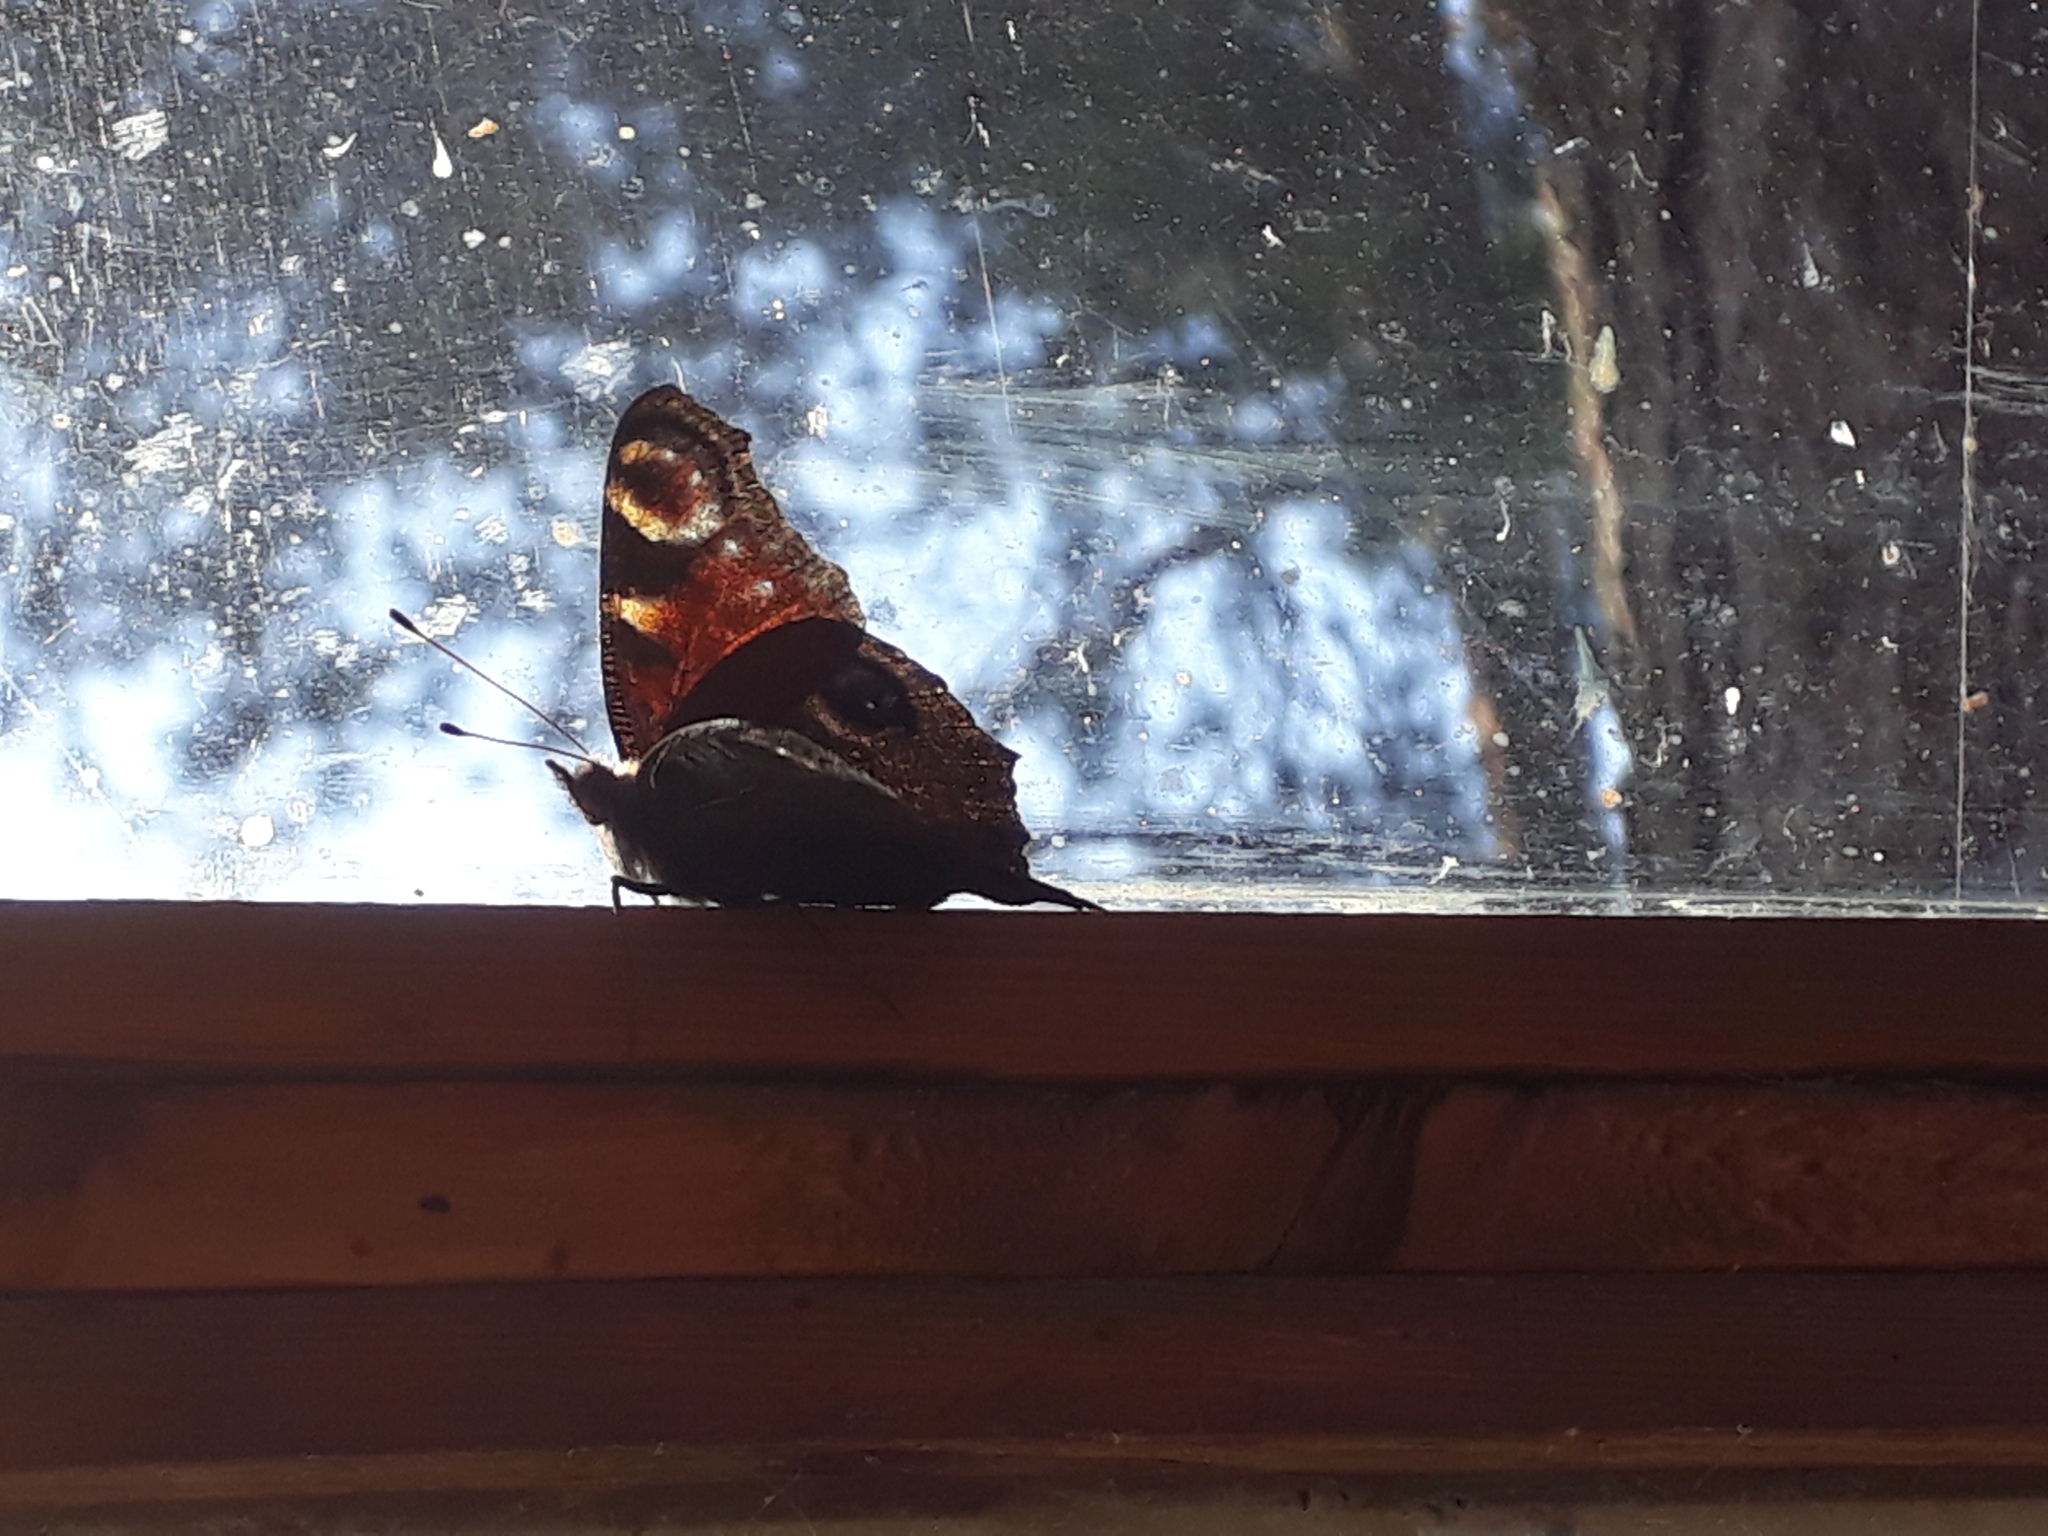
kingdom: Animalia
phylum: Arthropoda
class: Insecta
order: Lepidoptera
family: Nymphalidae
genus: Aglais
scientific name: Aglais io
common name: Peacock
